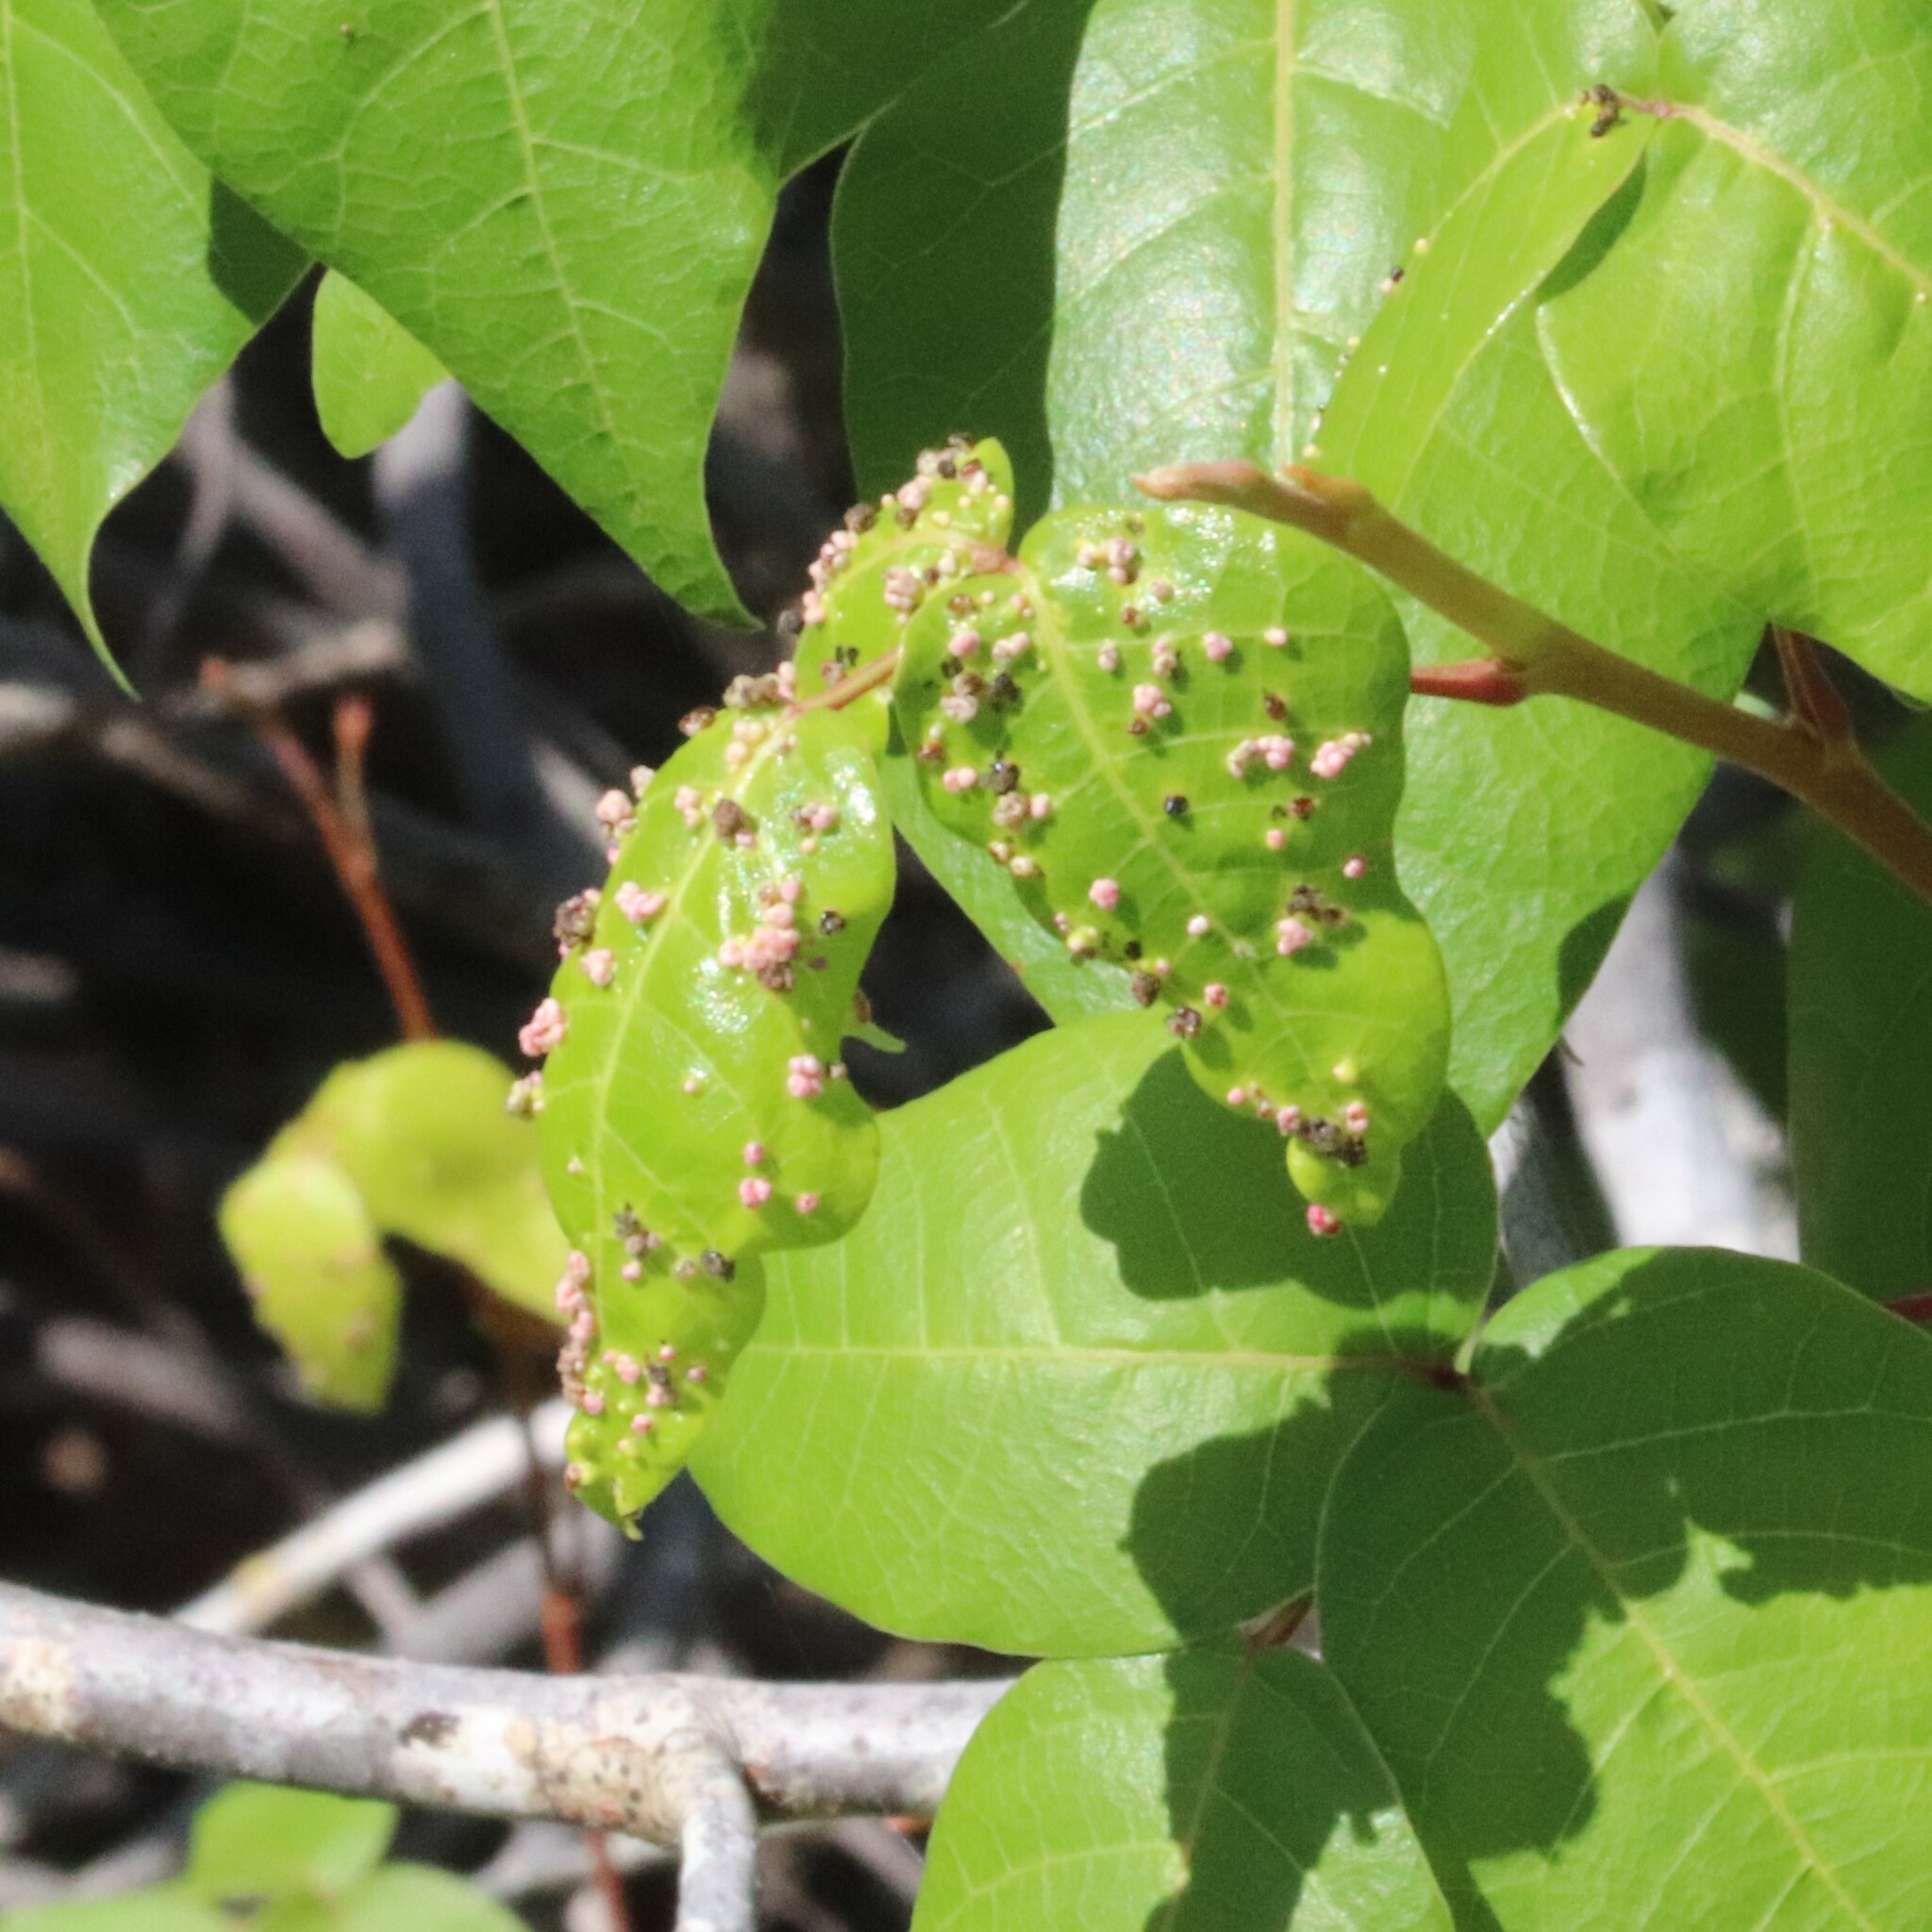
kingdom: Animalia
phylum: Arthropoda
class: Arachnida
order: Trombidiformes
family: Eriophyidae
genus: Aculops
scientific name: Aculops
